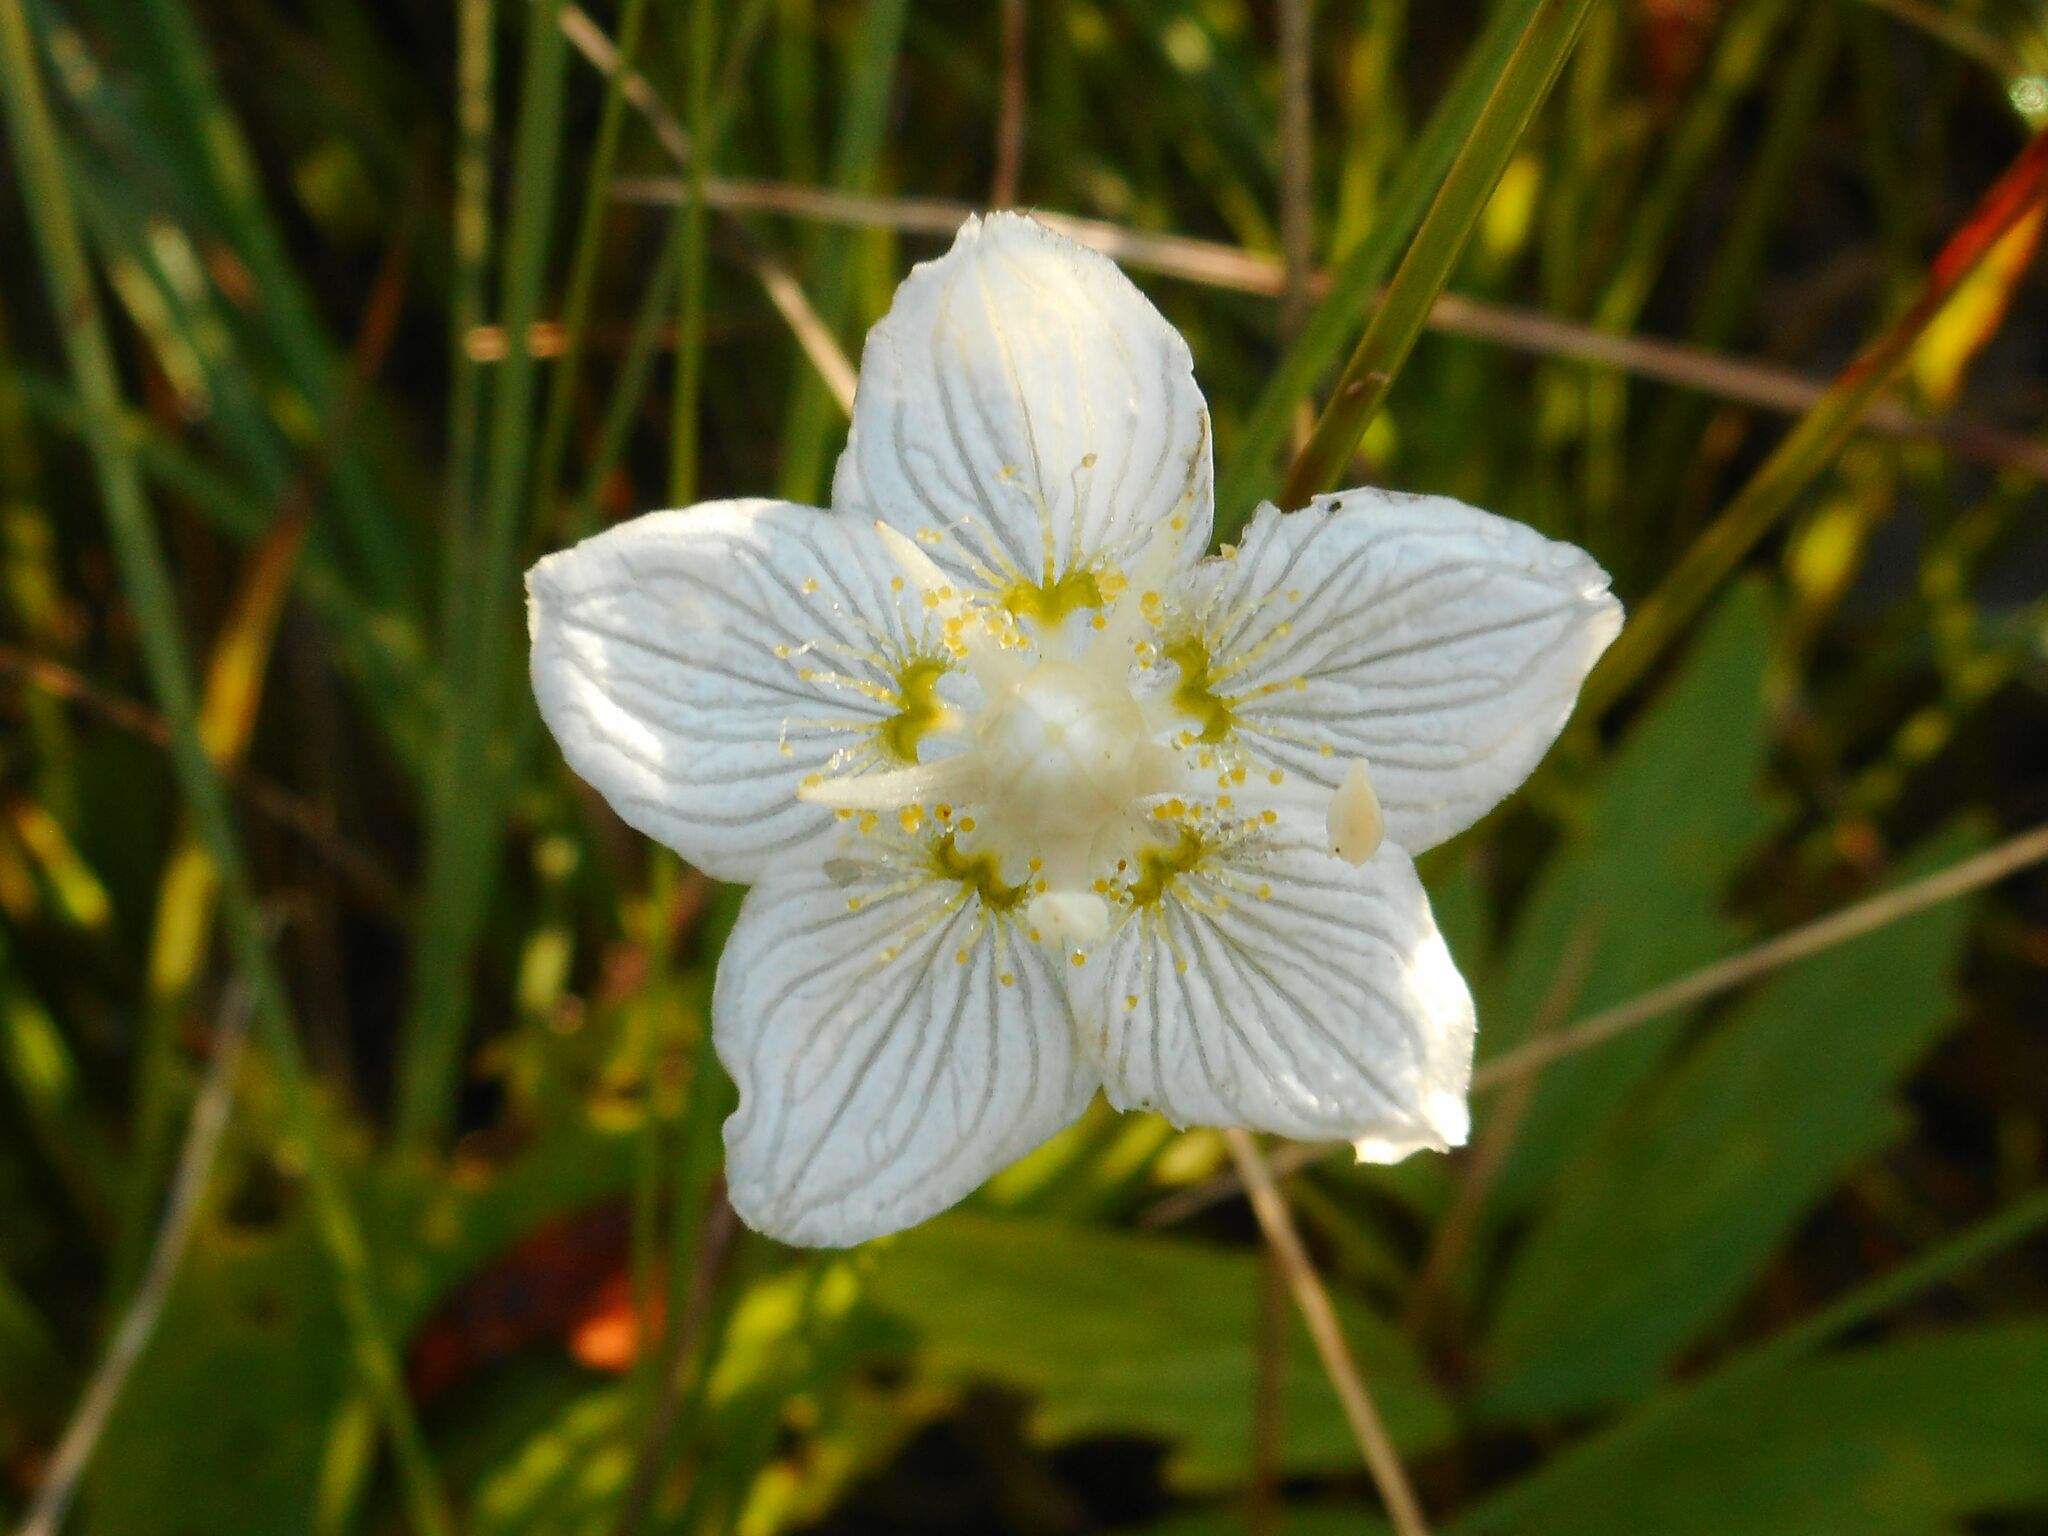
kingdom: Plantae
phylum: Tracheophyta
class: Magnoliopsida
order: Celastrales
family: Parnassiaceae
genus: Parnassia
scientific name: Parnassia palustris
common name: Grass-of-parnassus
